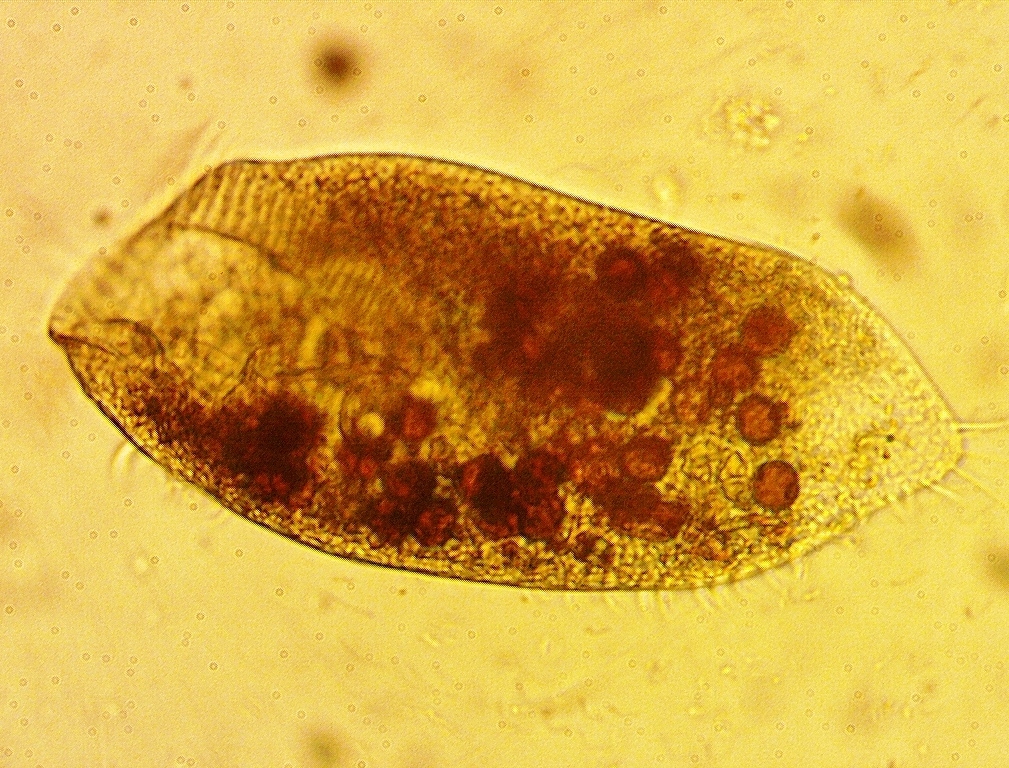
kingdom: Chromista
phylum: Ciliophora
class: Hypotrichea
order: Oxytrichida
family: Oxytrichidae
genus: Laurentiella
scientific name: Laurentiella strenua
